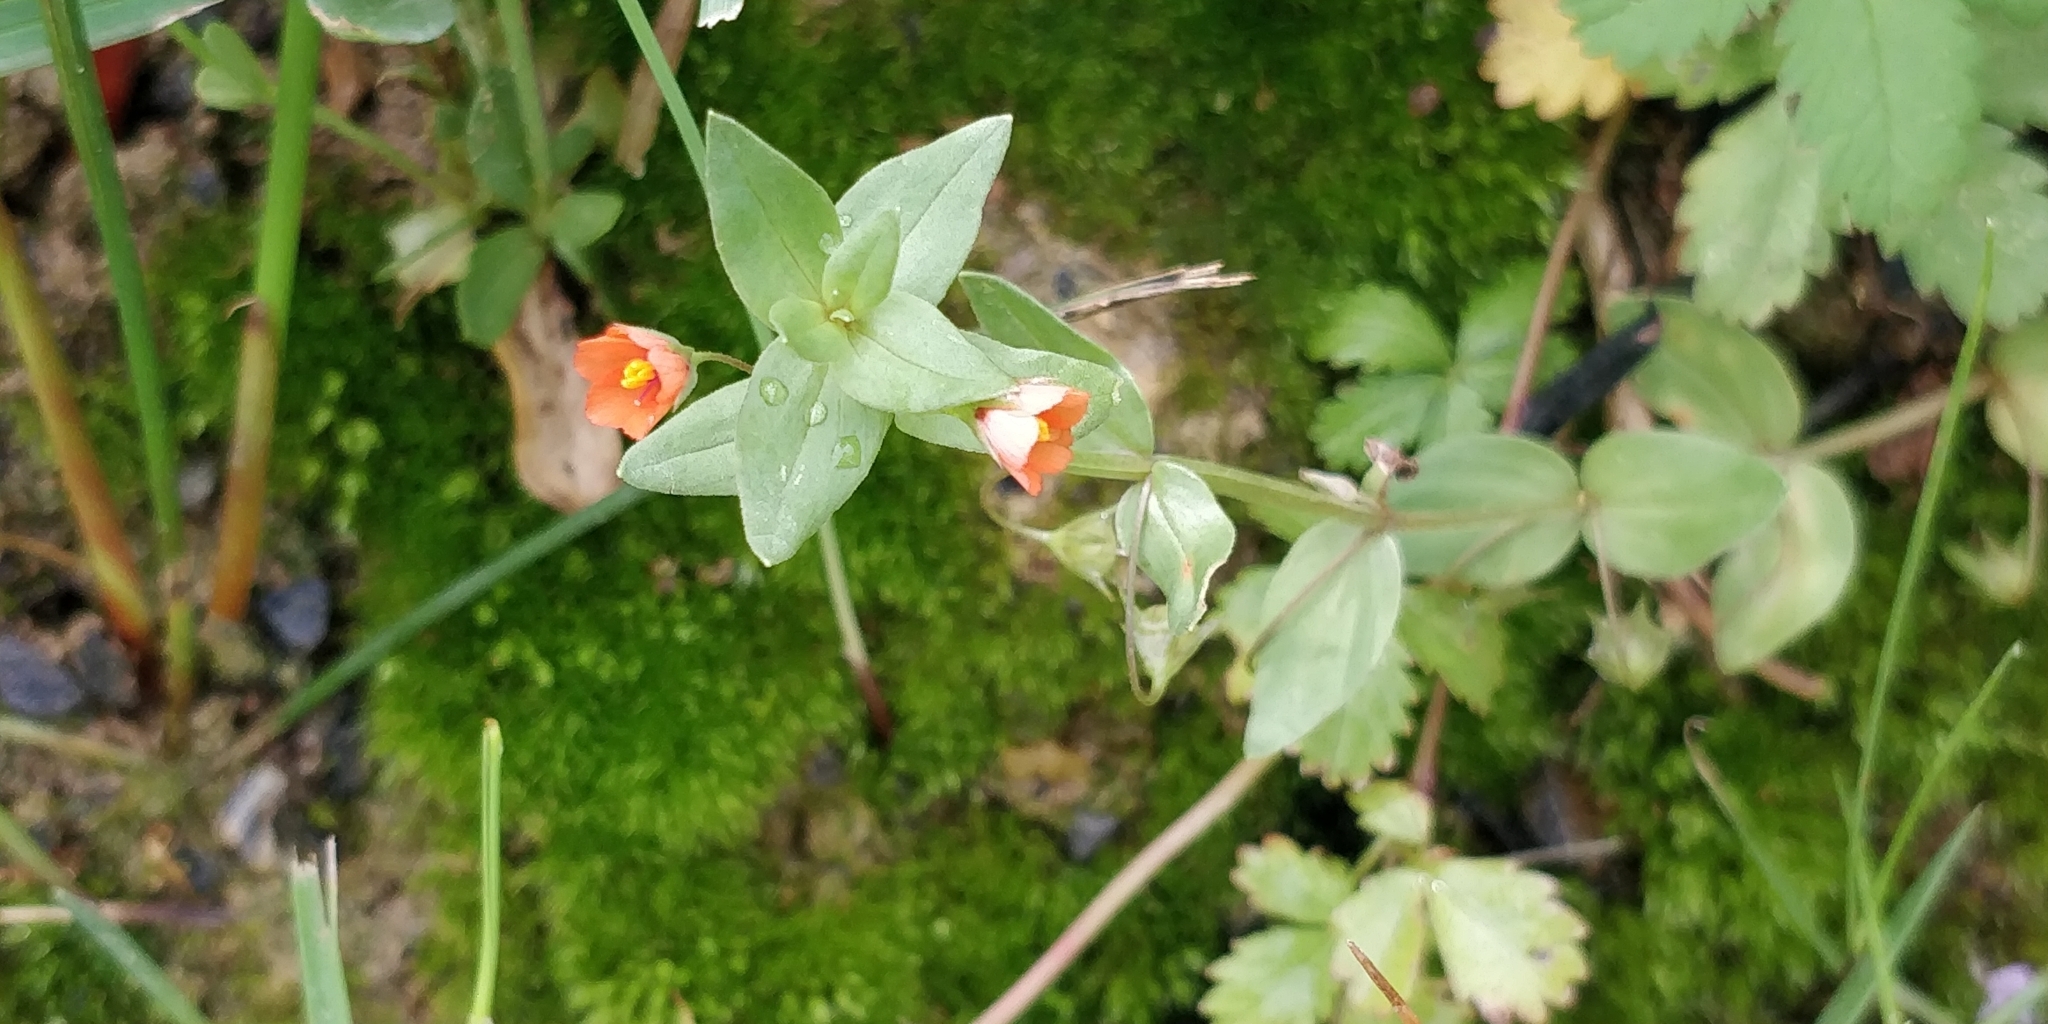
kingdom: Plantae
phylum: Tracheophyta
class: Magnoliopsida
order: Ericales
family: Primulaceae
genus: Lysimachia
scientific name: Lysimachia arvensis
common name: Scarlet pimpernel
